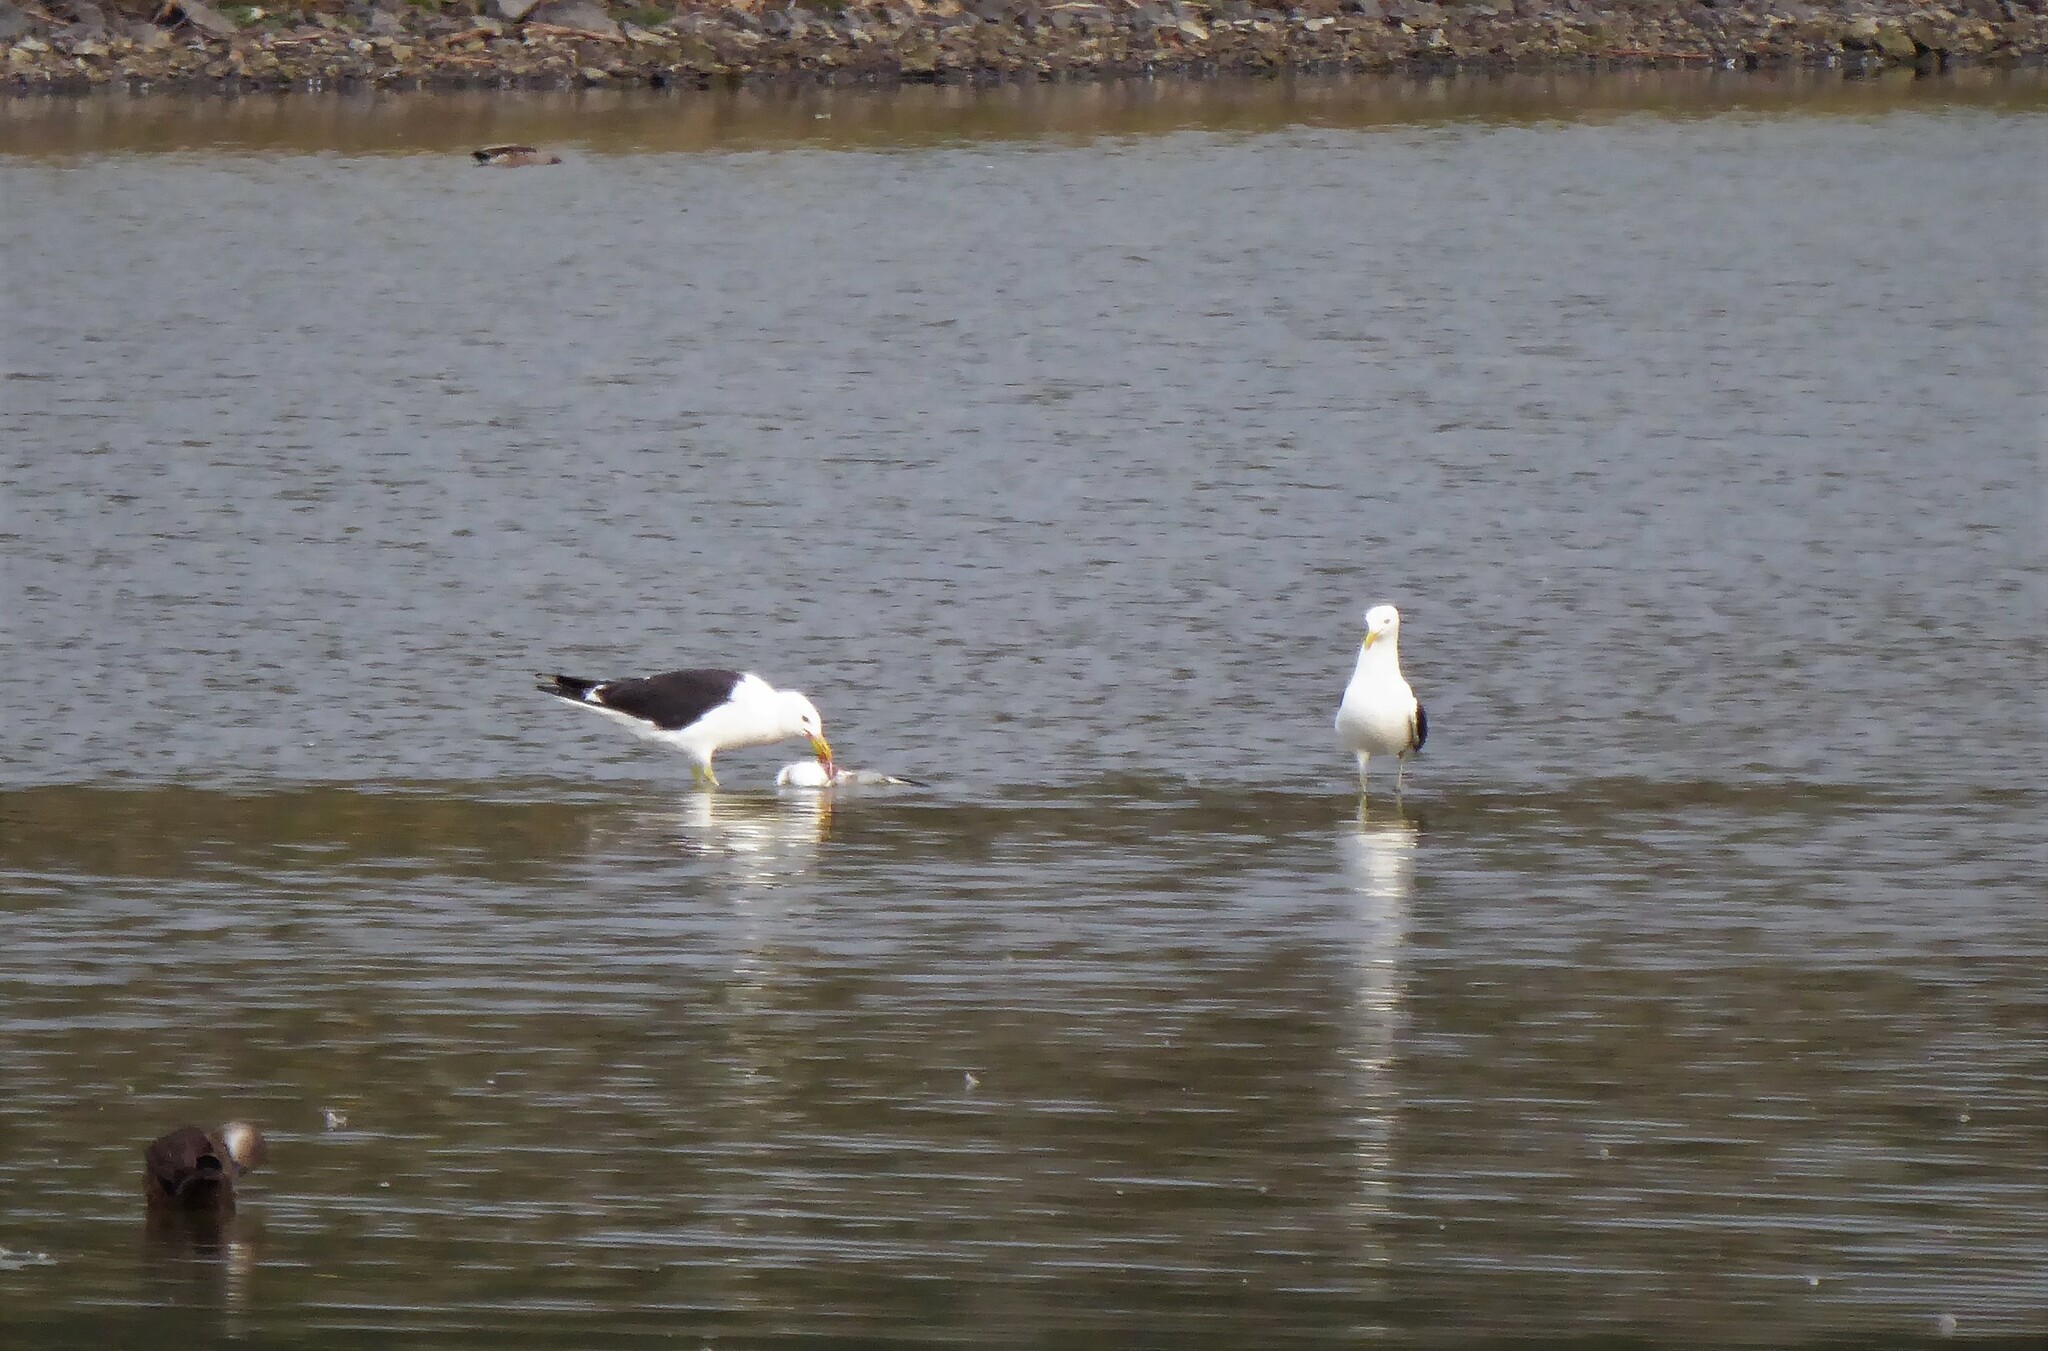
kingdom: Animalia
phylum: Chordata
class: Aves
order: Charadriiformes
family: Laridae
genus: Larus
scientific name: Larus dominicanus
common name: Kelp gull
